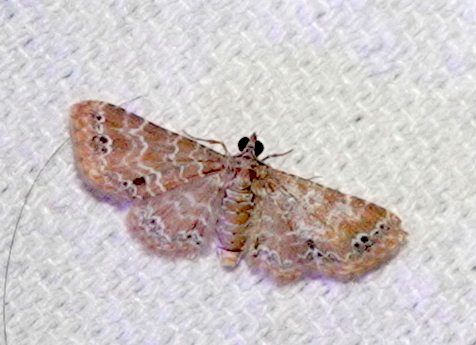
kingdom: Animalia
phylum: Arthropoda
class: Insecta
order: Lepidoptera
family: Geometridae
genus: Carbia
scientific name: Carbia pulchrilinea
